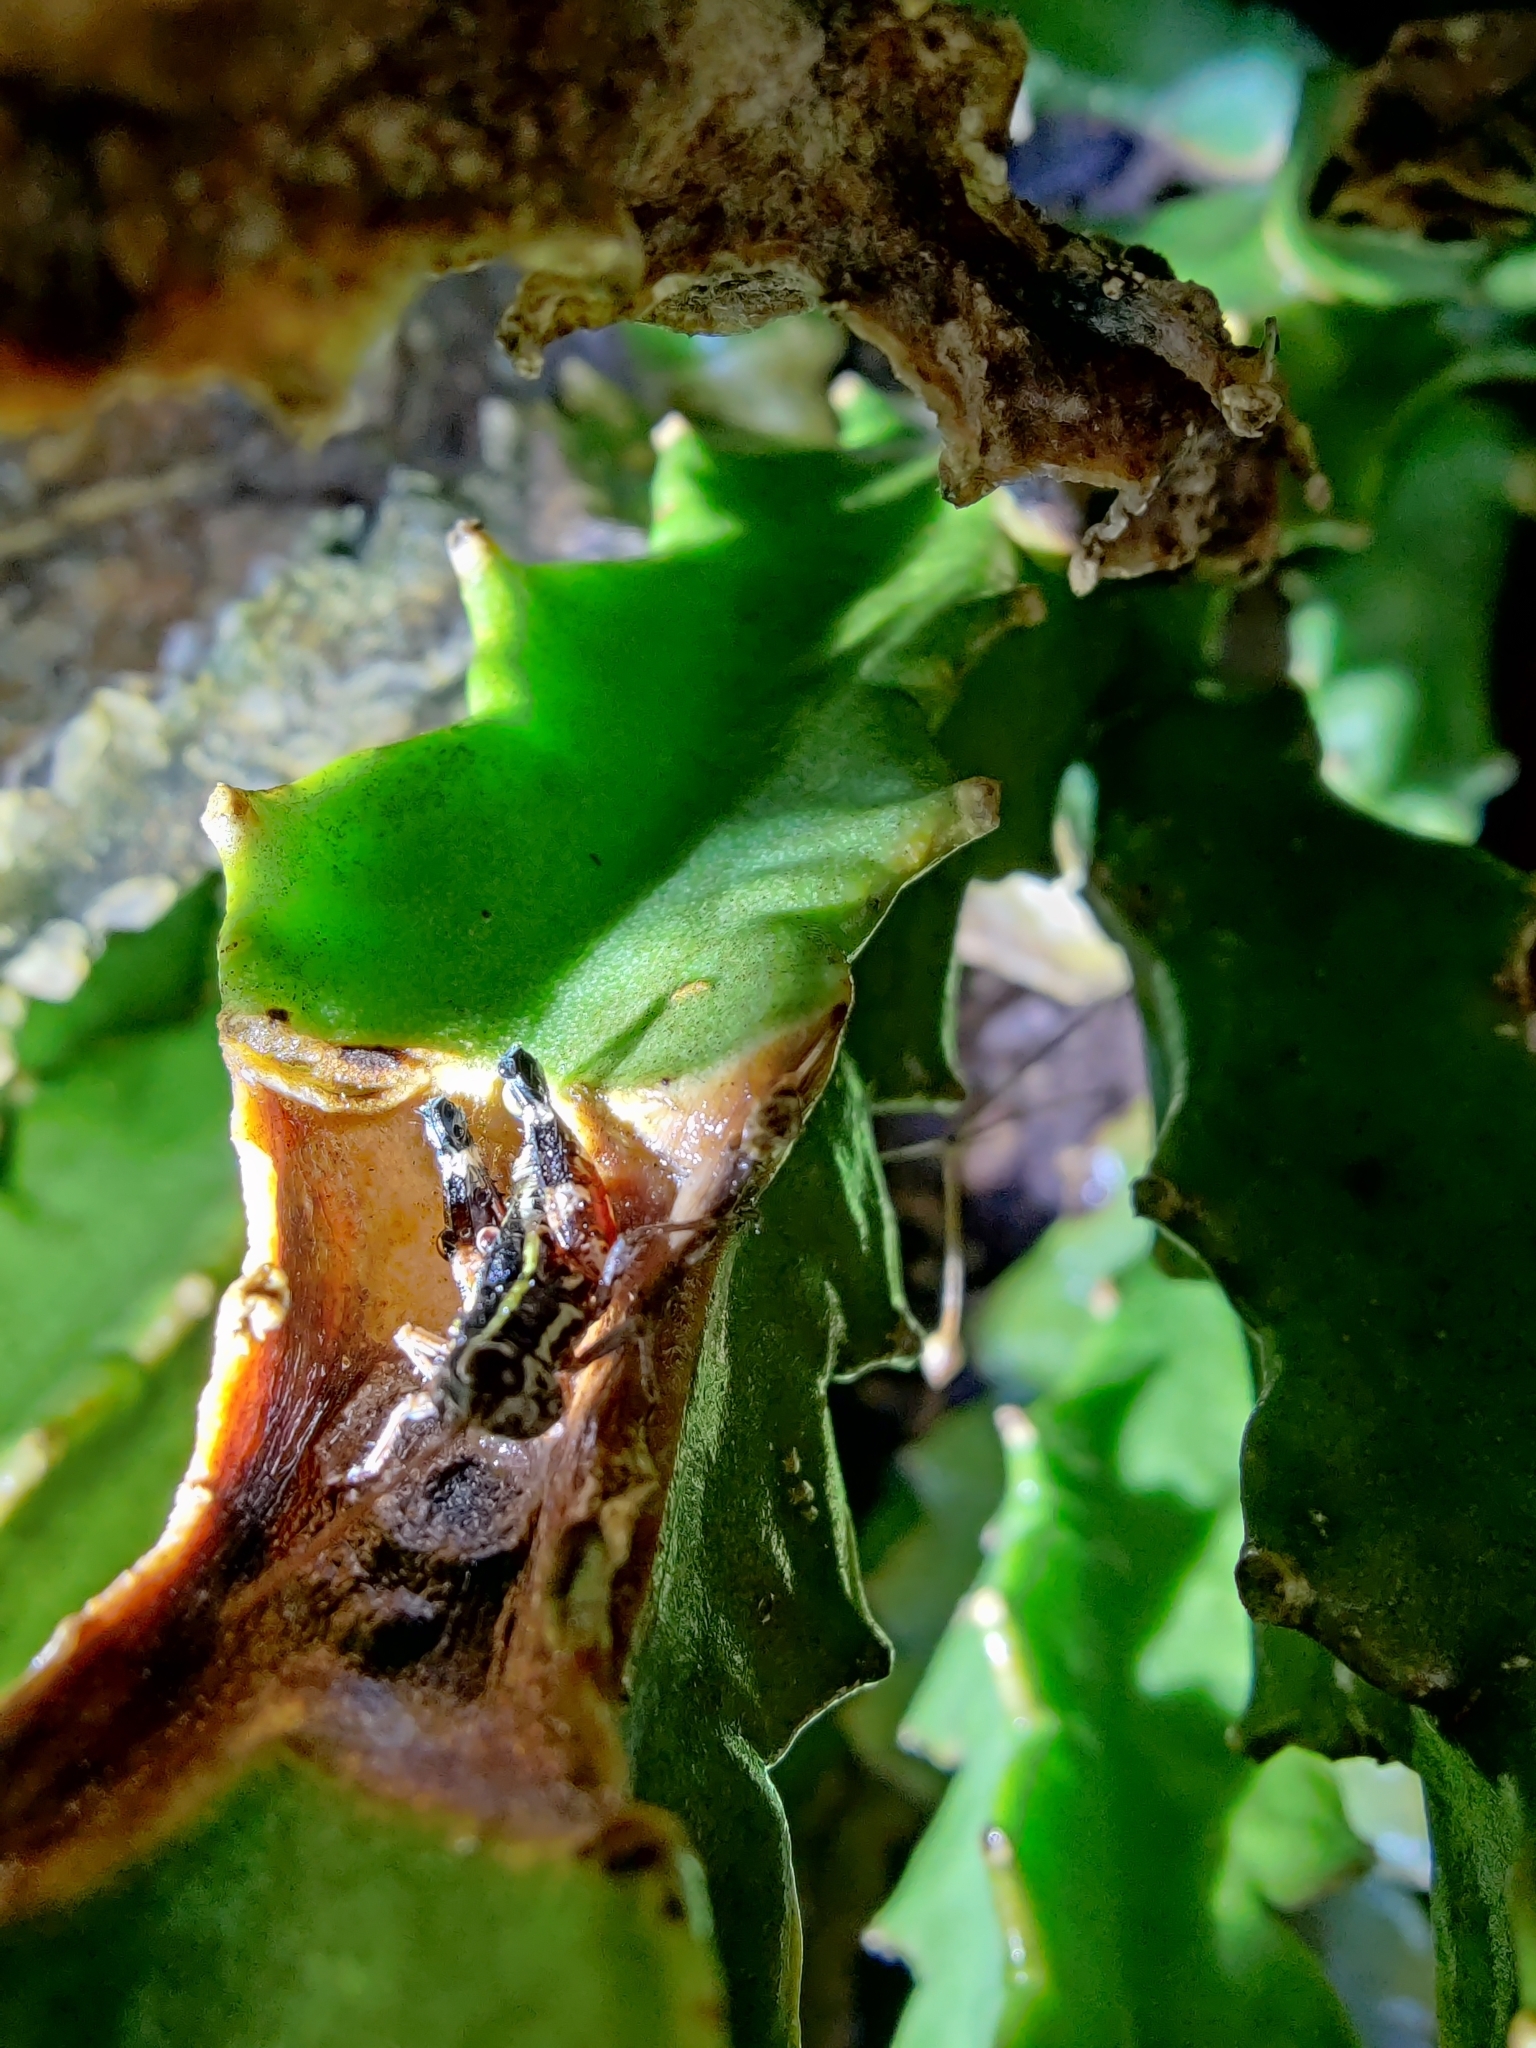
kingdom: Animalia
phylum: Arthropoda
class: Insecta
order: Orthoptera
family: Acrididae
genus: Opharicus
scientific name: Opharicus ballardi
